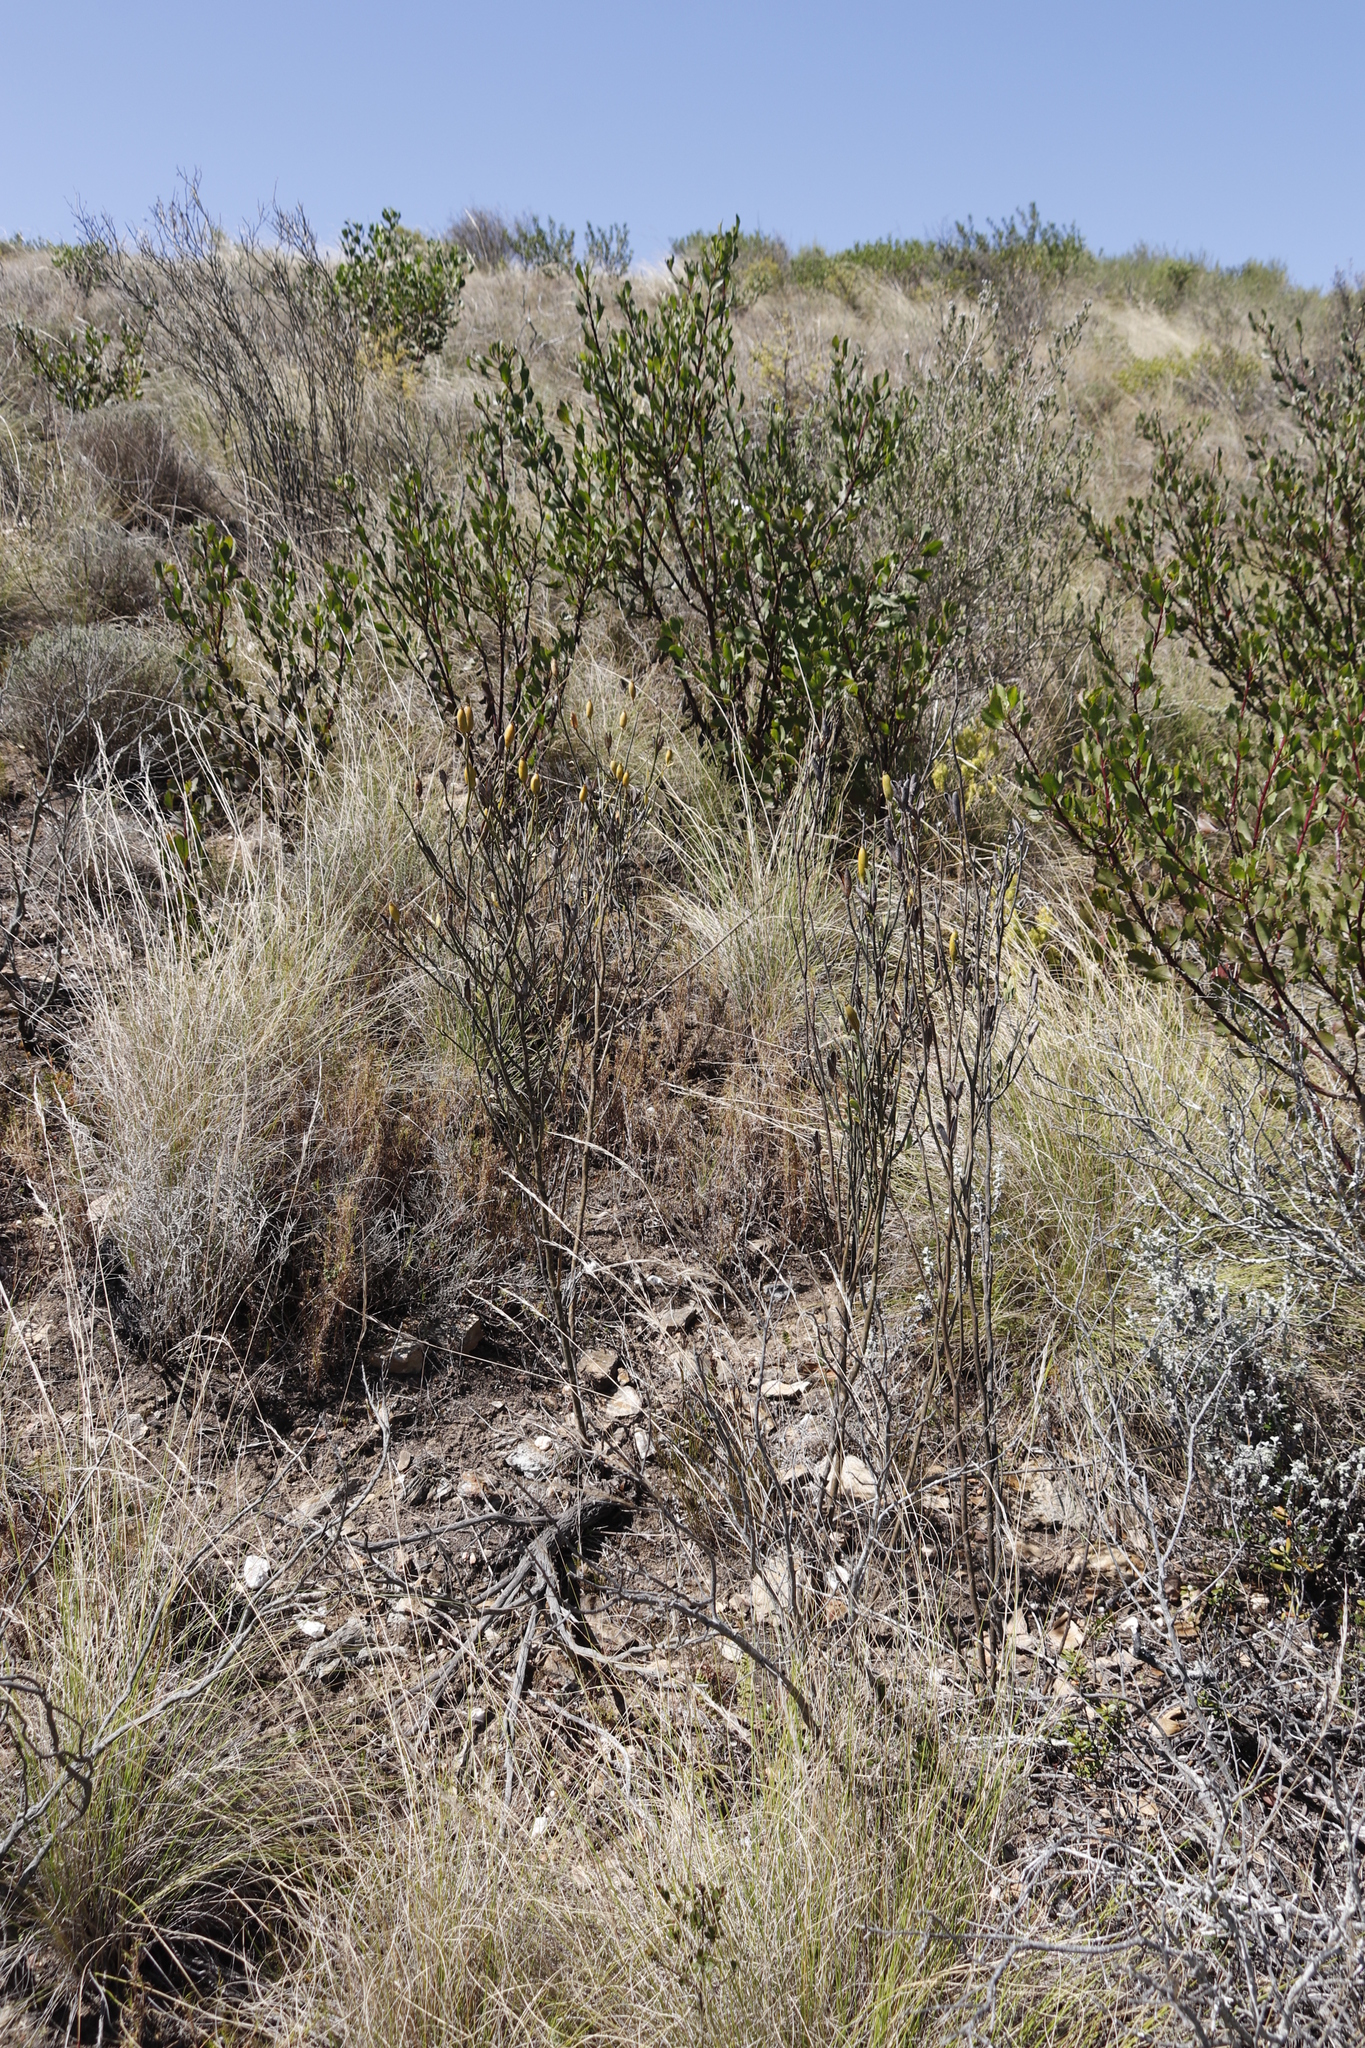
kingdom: Plantae
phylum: Tracheophyta
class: Magnoliopsida
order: Solanales
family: Montiniaceae
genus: Montinia
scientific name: Montinia caryophyllacea
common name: Wild clove-bush
